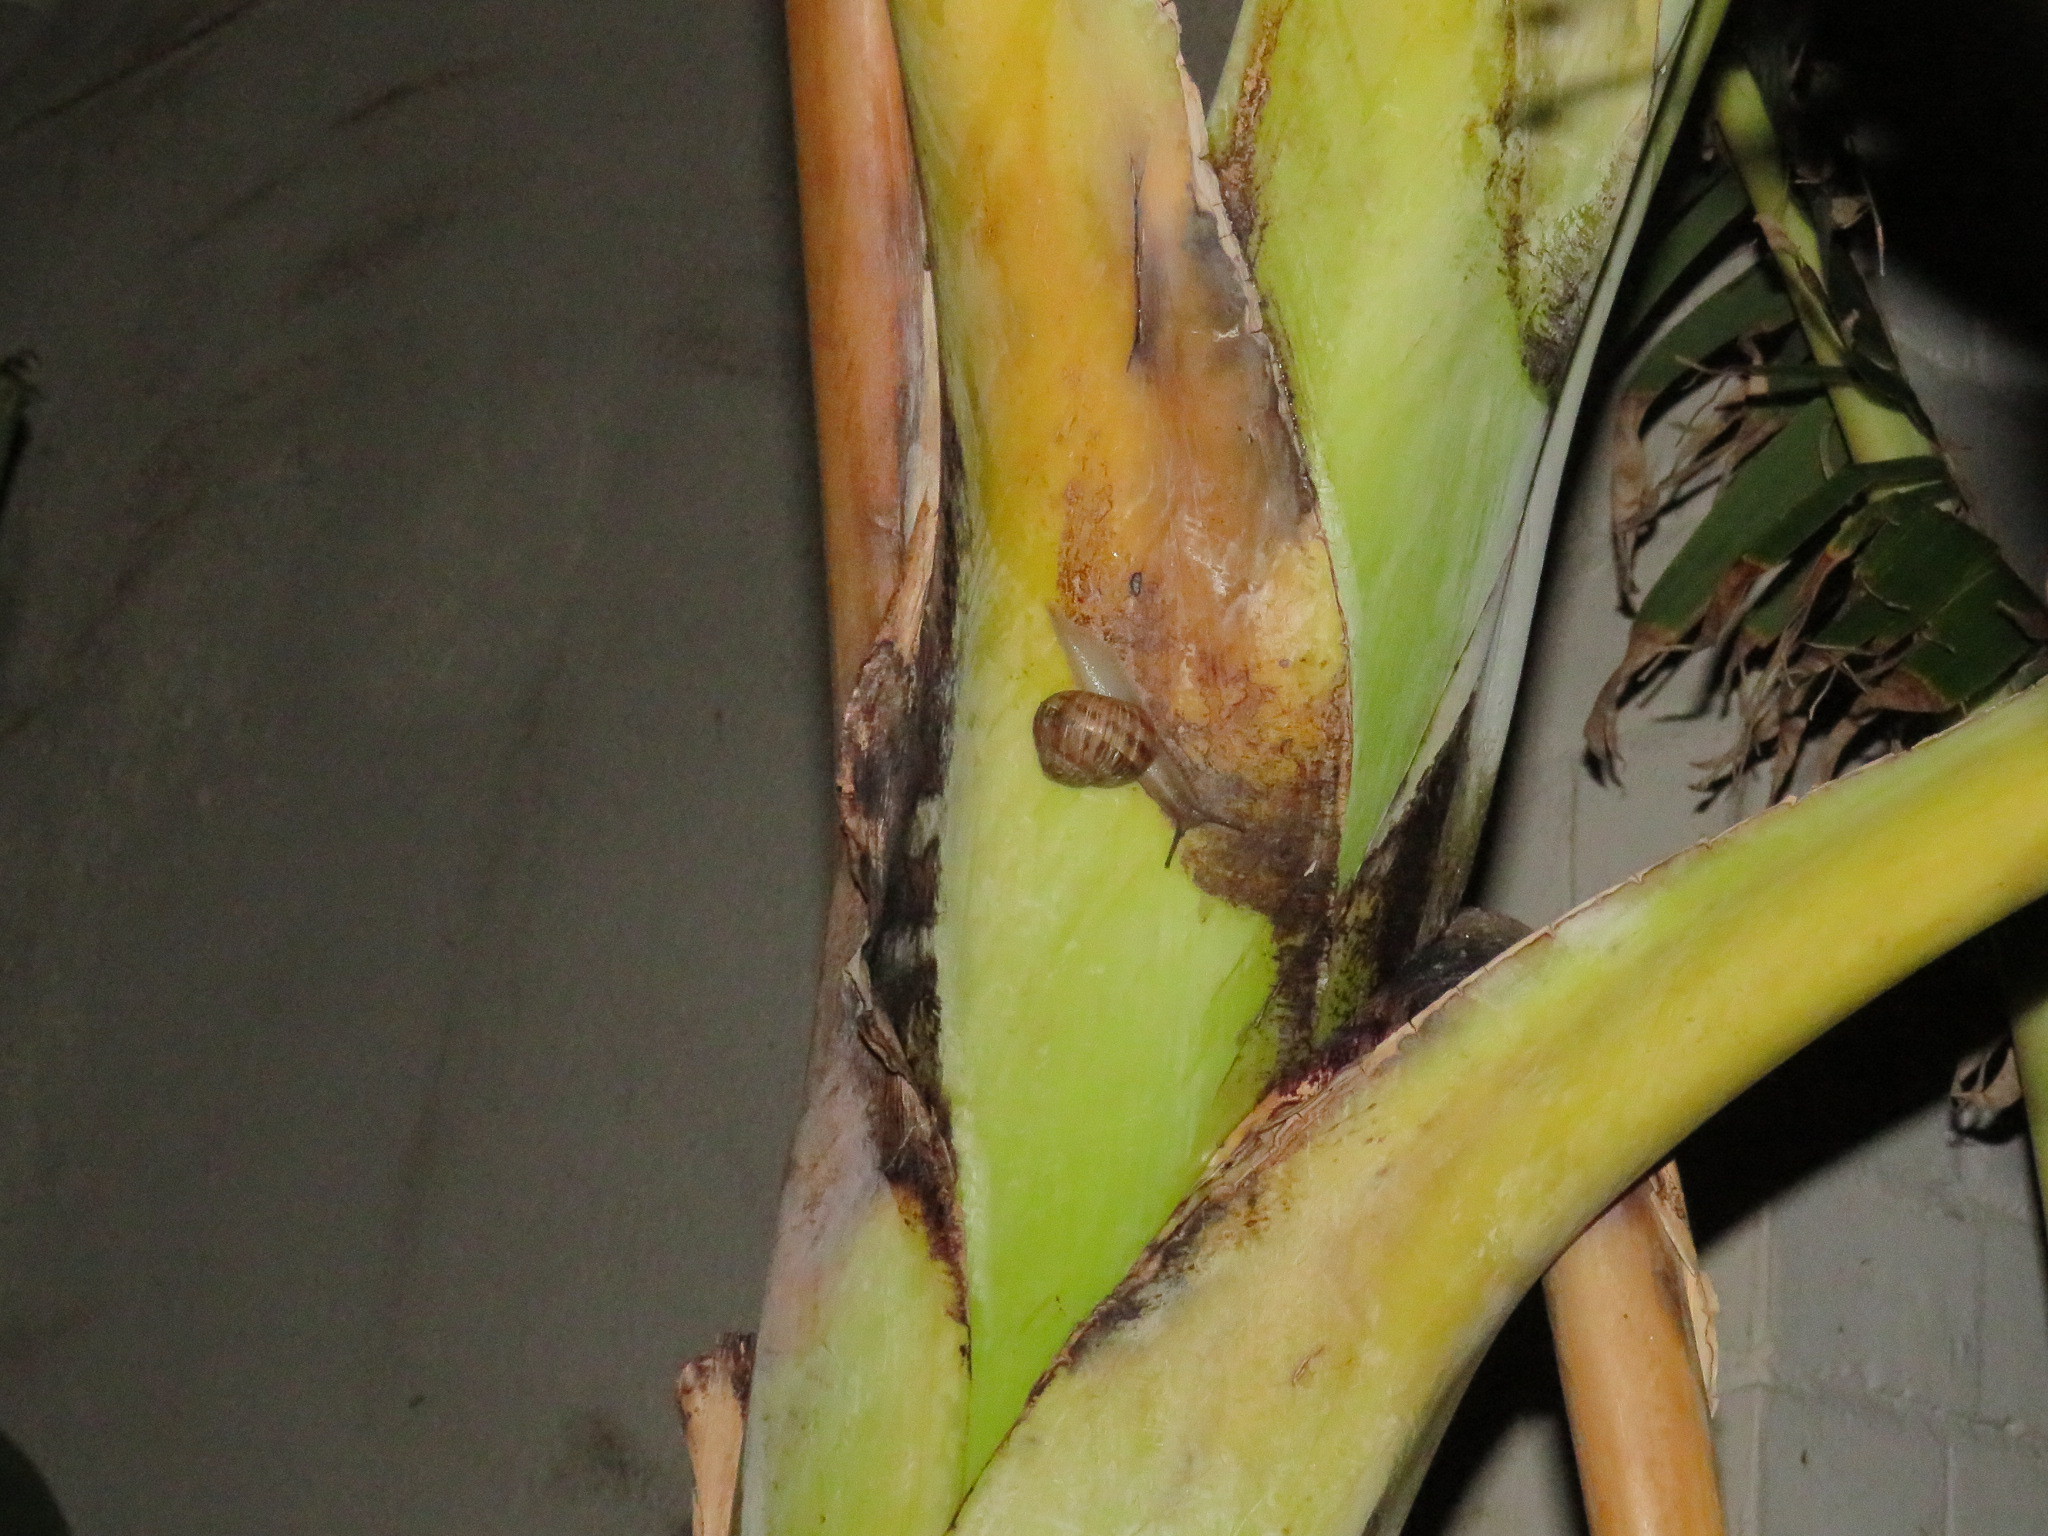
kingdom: Animalia
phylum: Mollusca
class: Gastropoda
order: Stylommatophora
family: Helicidae
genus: Cornu
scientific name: Cornu aspersum
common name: Brown garden snail
